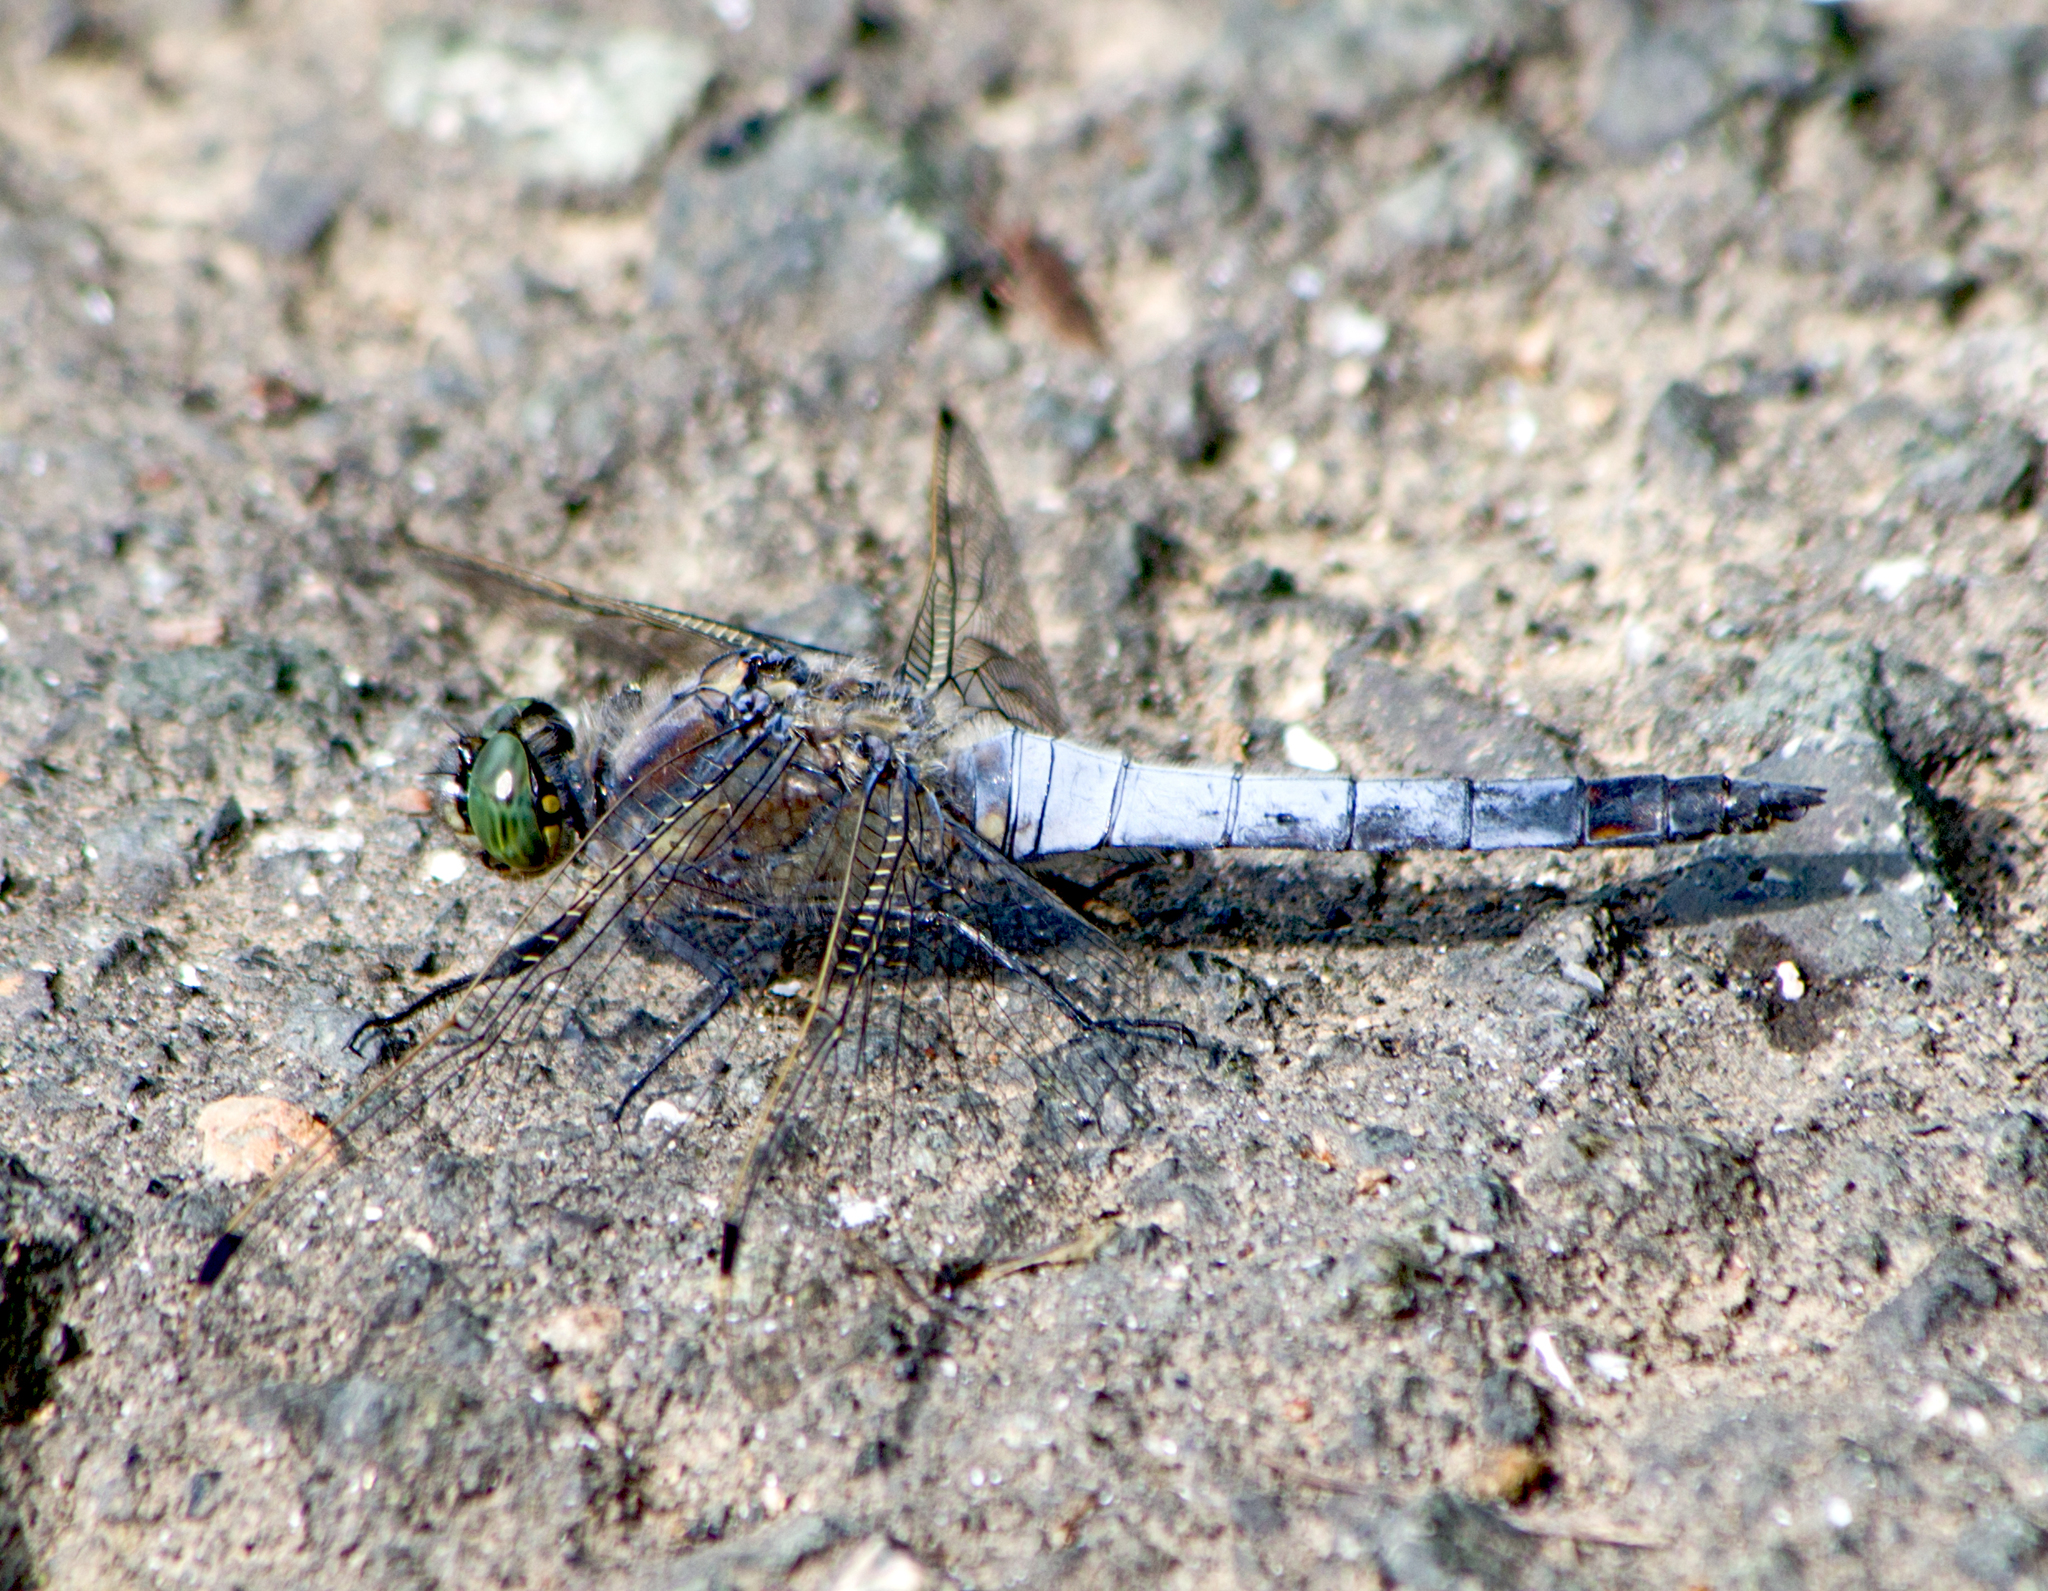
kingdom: Animalia
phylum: Arthropoda
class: Insecta
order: Odonata
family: Libellulidae
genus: Orthetrum
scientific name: Orthetrum cancellatum
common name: Black-tailed skimmer
